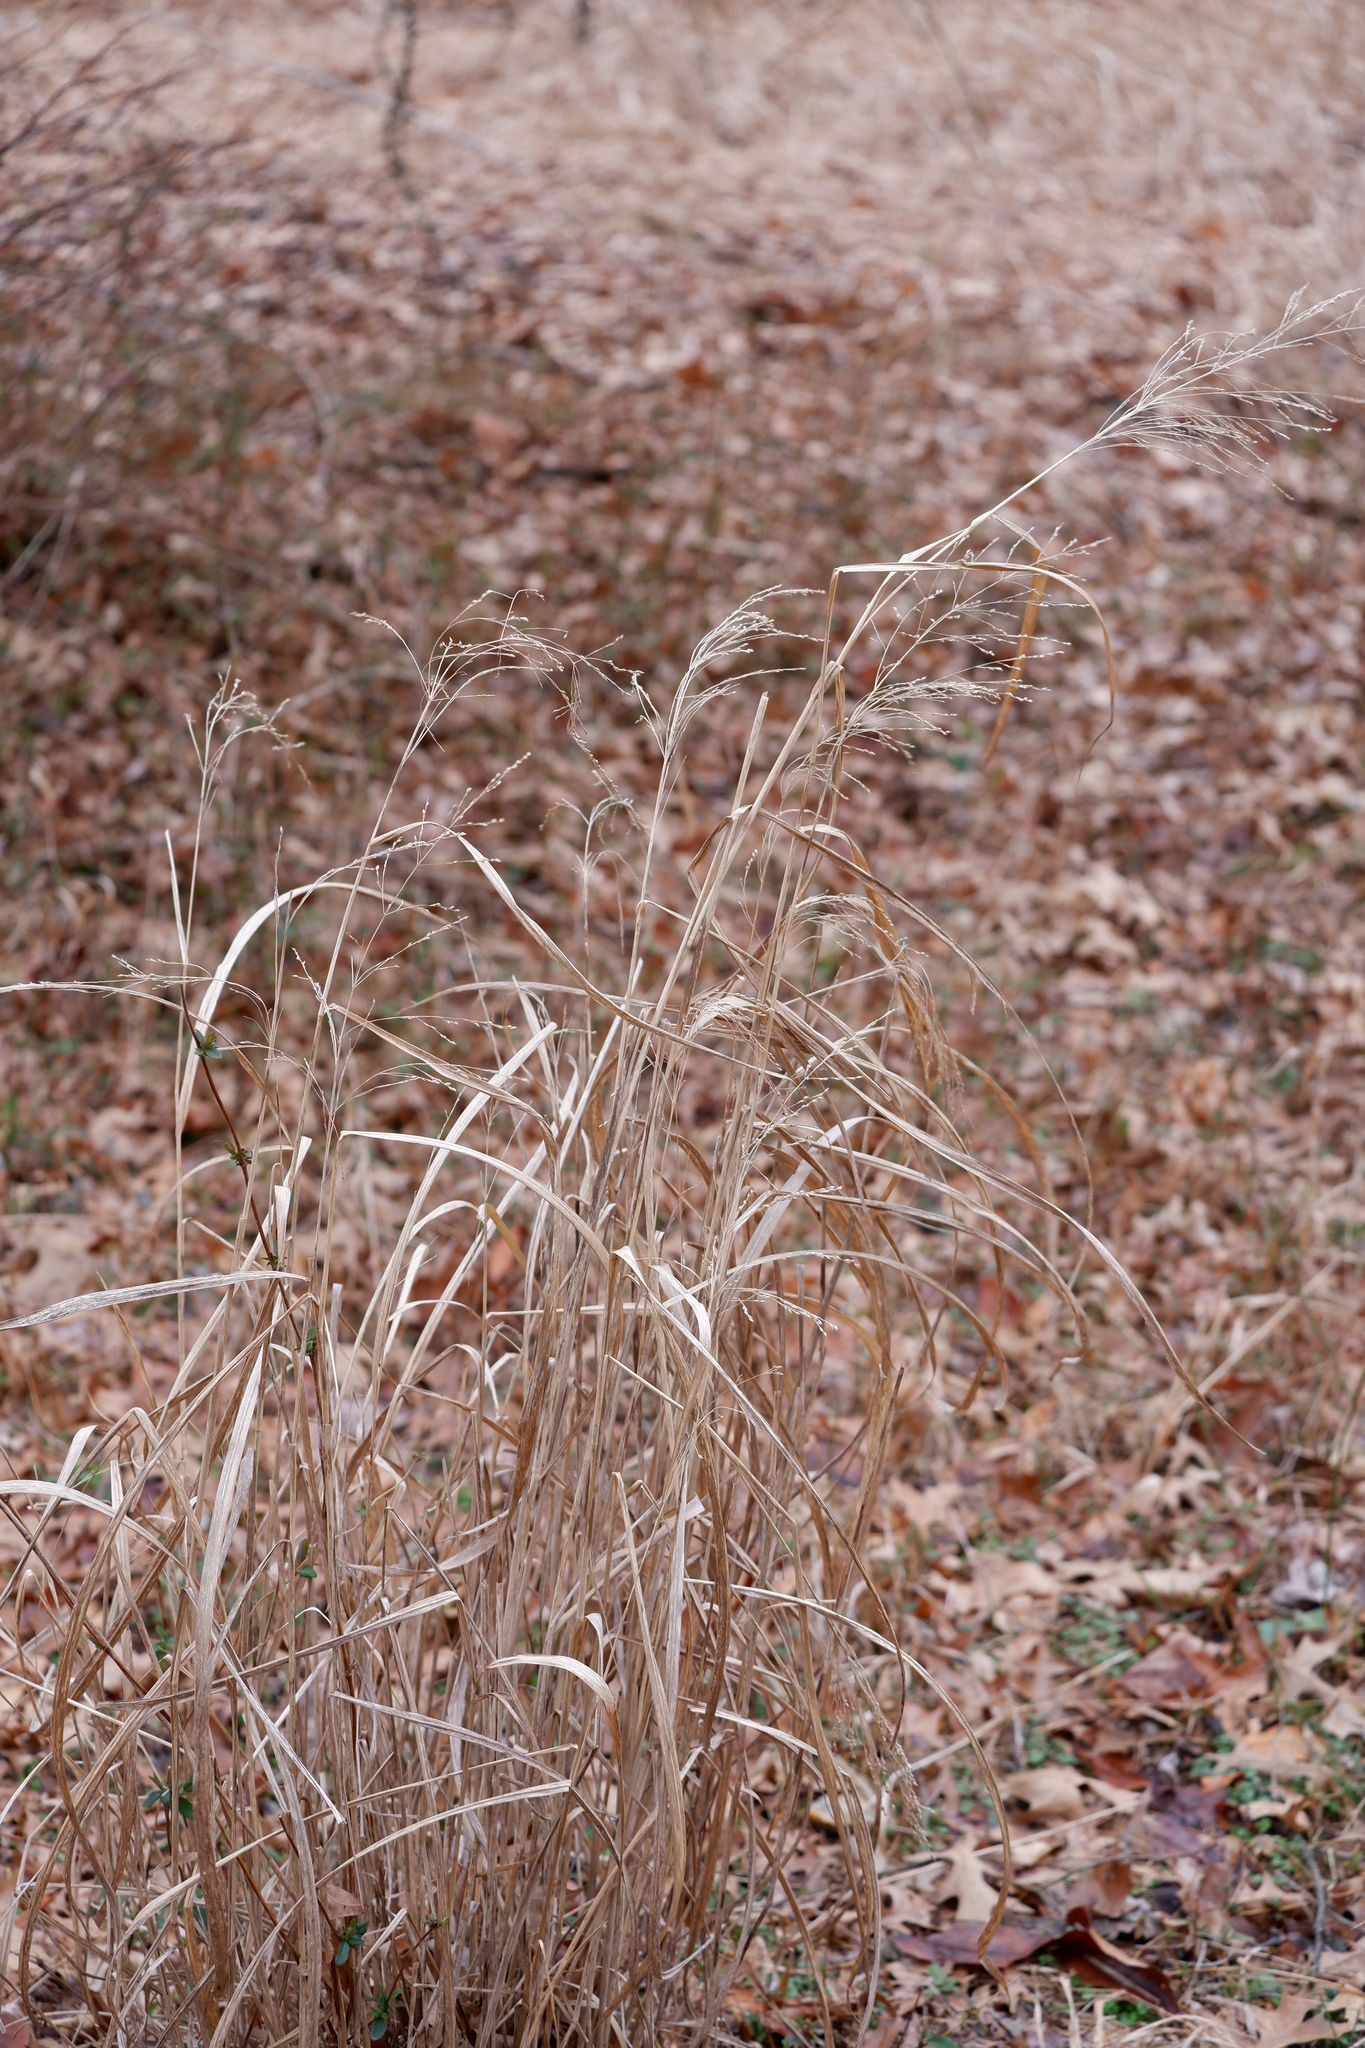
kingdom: Plantae
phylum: Tracheophyta
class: Liliopsida
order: Poales
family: Poaceae
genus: Panicum
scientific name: Panicum virgatum
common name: Switchgrass
